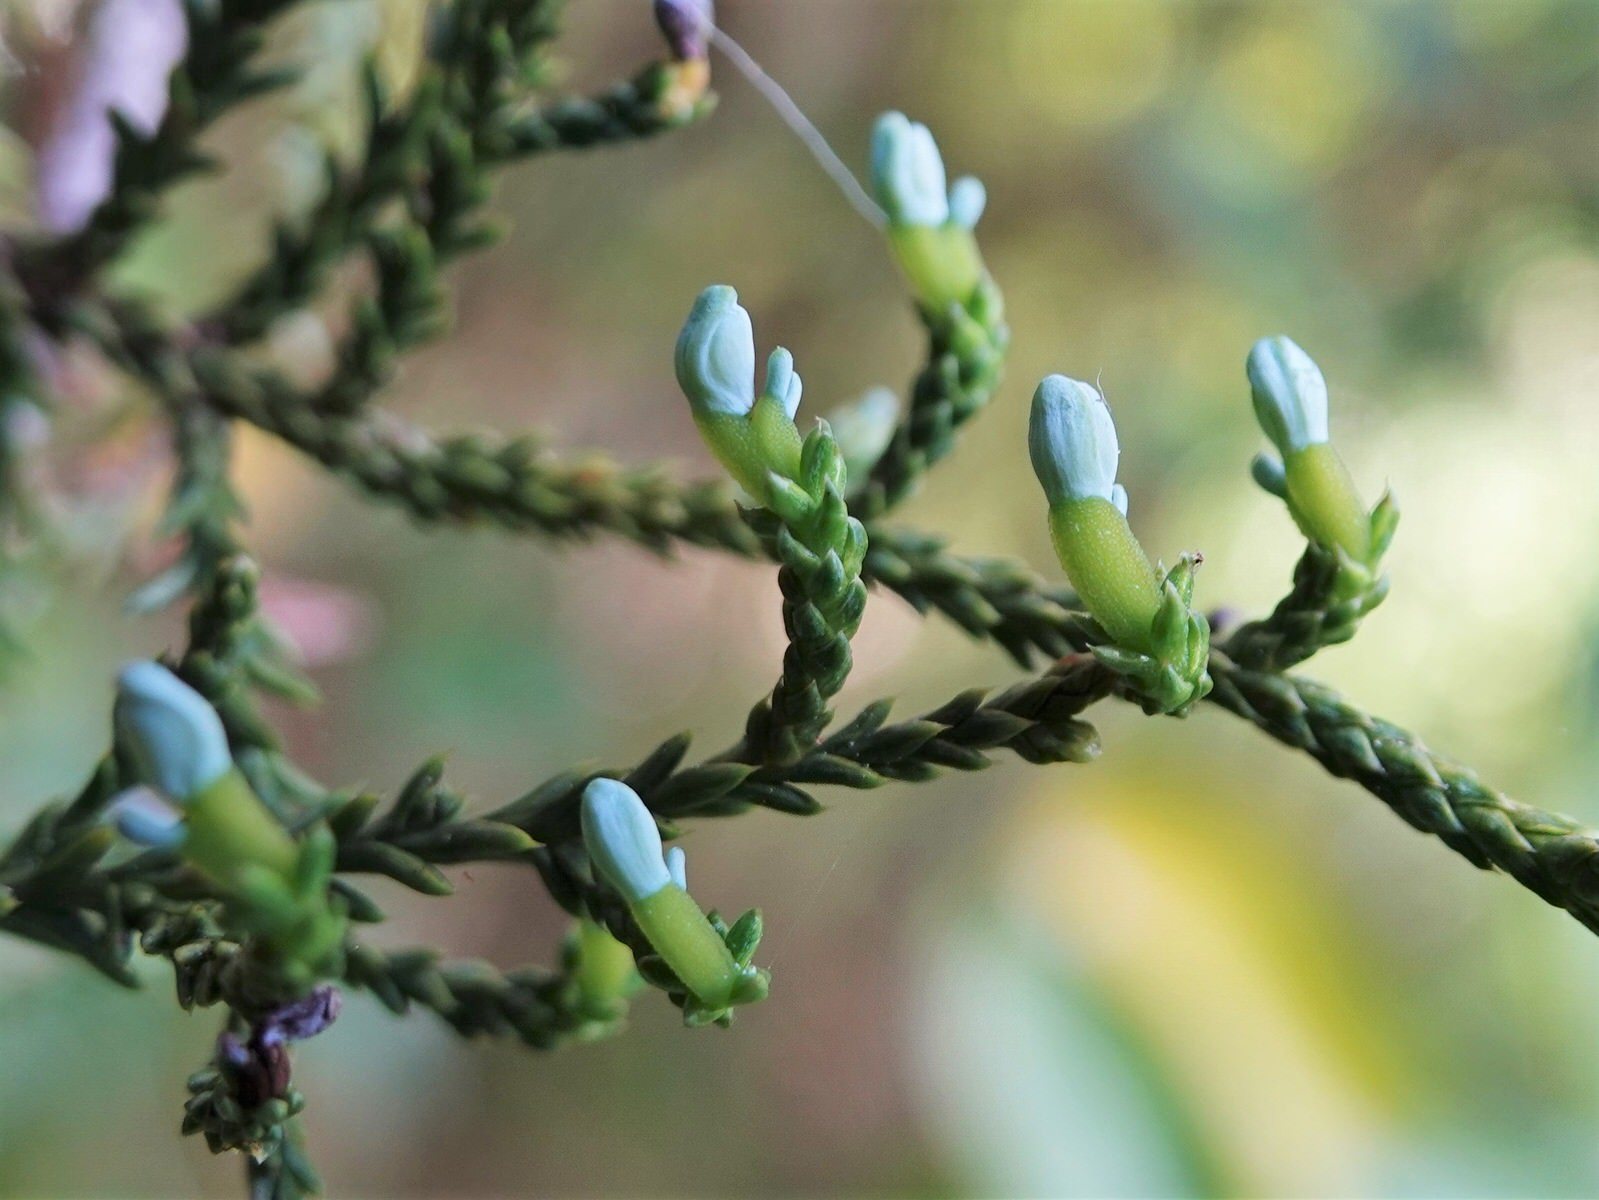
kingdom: Plantae
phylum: Tracheophyta
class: Pinopsida
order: Pinales
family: Podocarpaceae
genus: Dacrycarpus
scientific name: Dacrycarpus dacrydioides
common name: White pine
